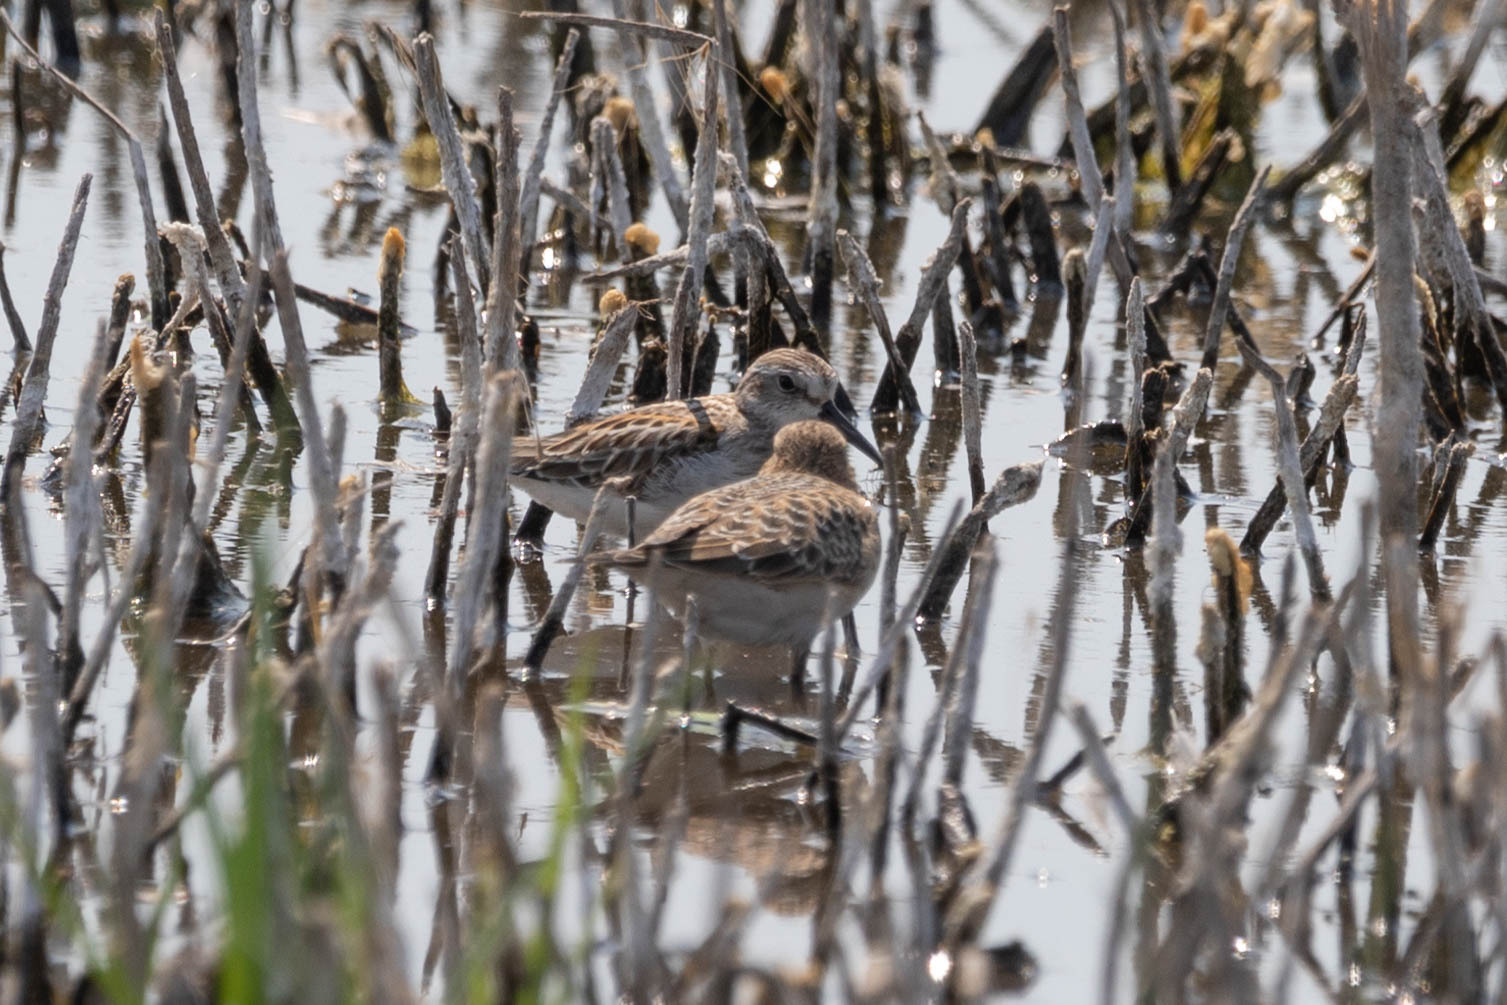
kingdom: Animalia
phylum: Chordata
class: Aves
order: Charadriiformes
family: Scolopacidae
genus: Calidris
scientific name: Calidris mauri
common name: Western sandpiper
